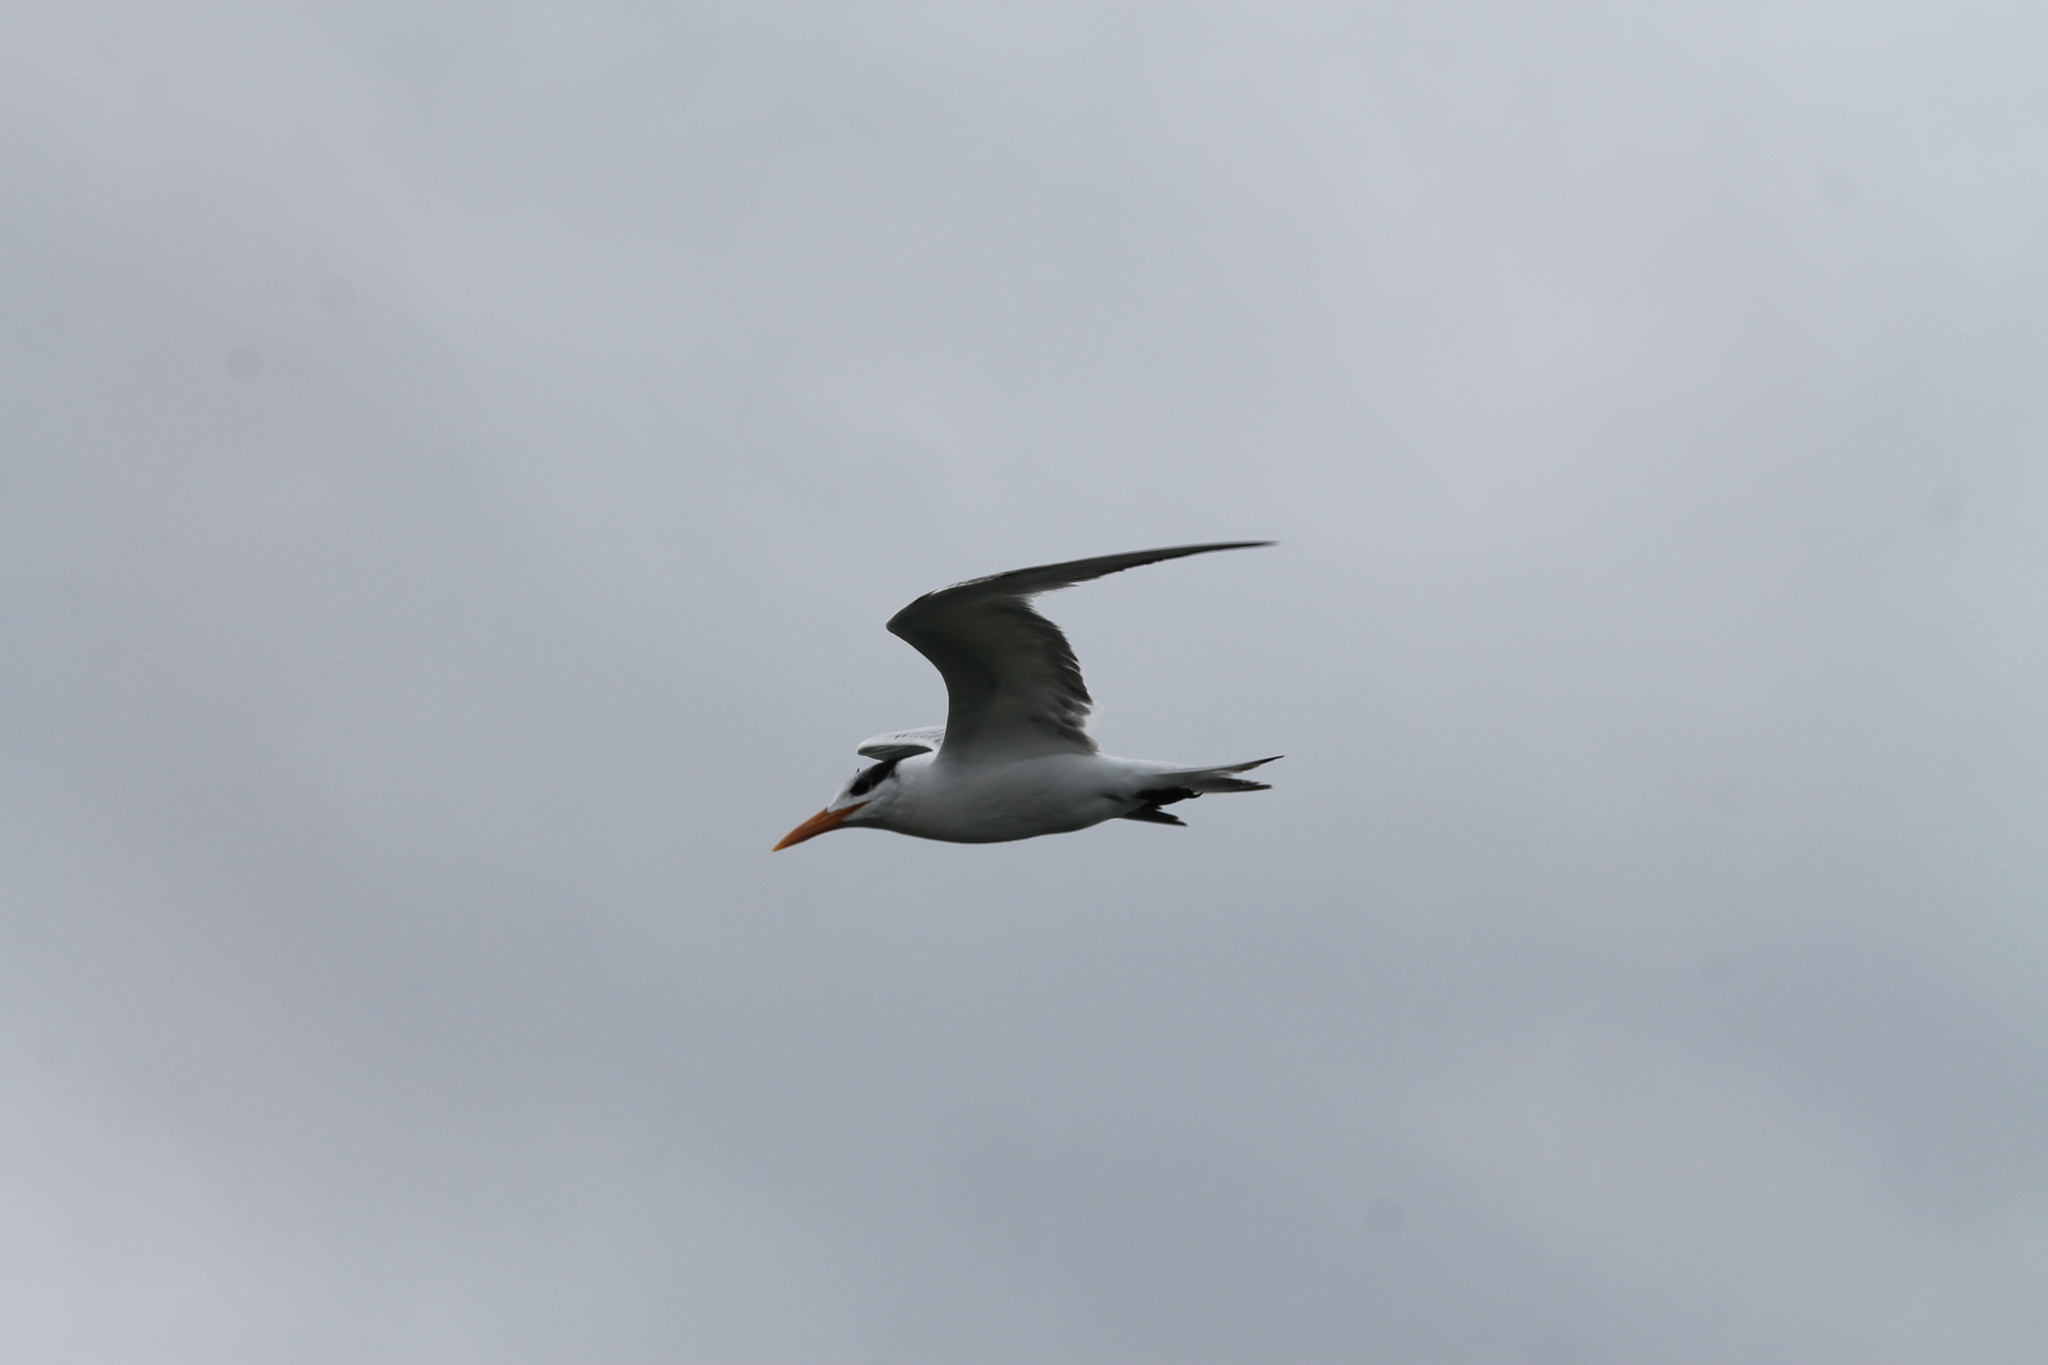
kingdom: Animalia
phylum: Chordata
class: Aves
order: Charadriiformes
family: Laridae
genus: Thalasseus
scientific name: Thalasseus maximus
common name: Royal tern
